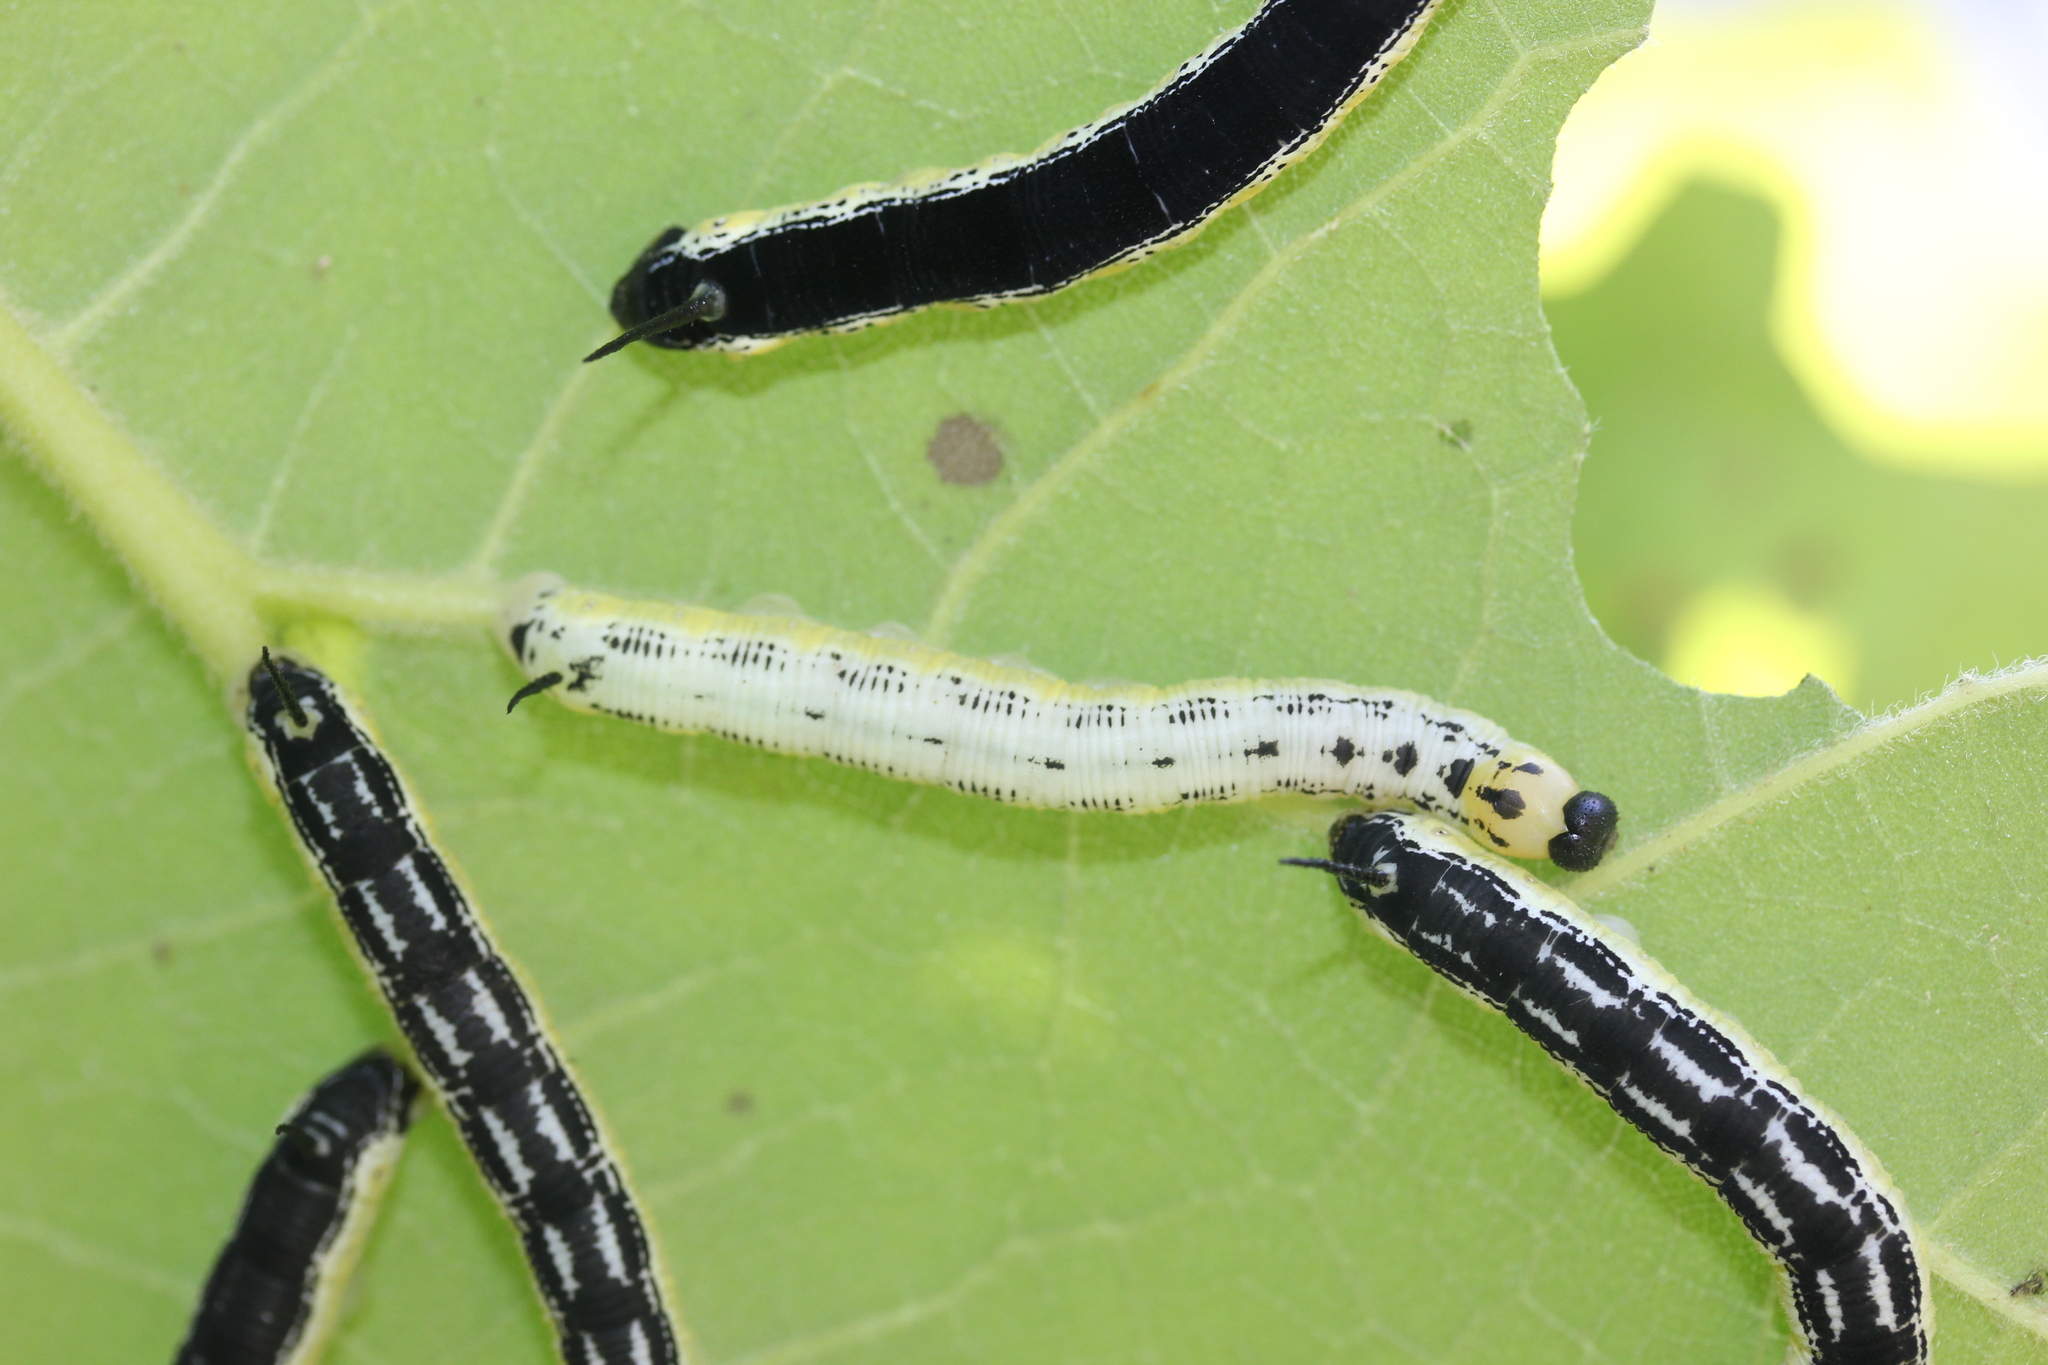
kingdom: Animalia
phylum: Arthropoda
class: Insecta
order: Lepidoptera
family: Sphingidae
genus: Ceratomia
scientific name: Ceratomia catalpae
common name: Catalpa hornworm
